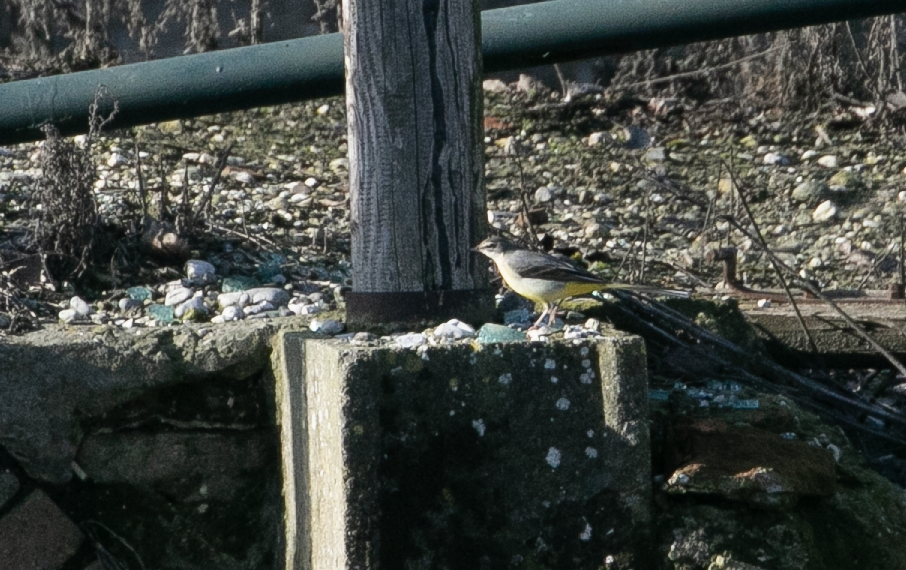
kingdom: Animalia
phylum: Chordata
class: Aves
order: Passeriformes
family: Motacillidae
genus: Motacilla
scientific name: Motacilla cinerea
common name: Grey wagtail
